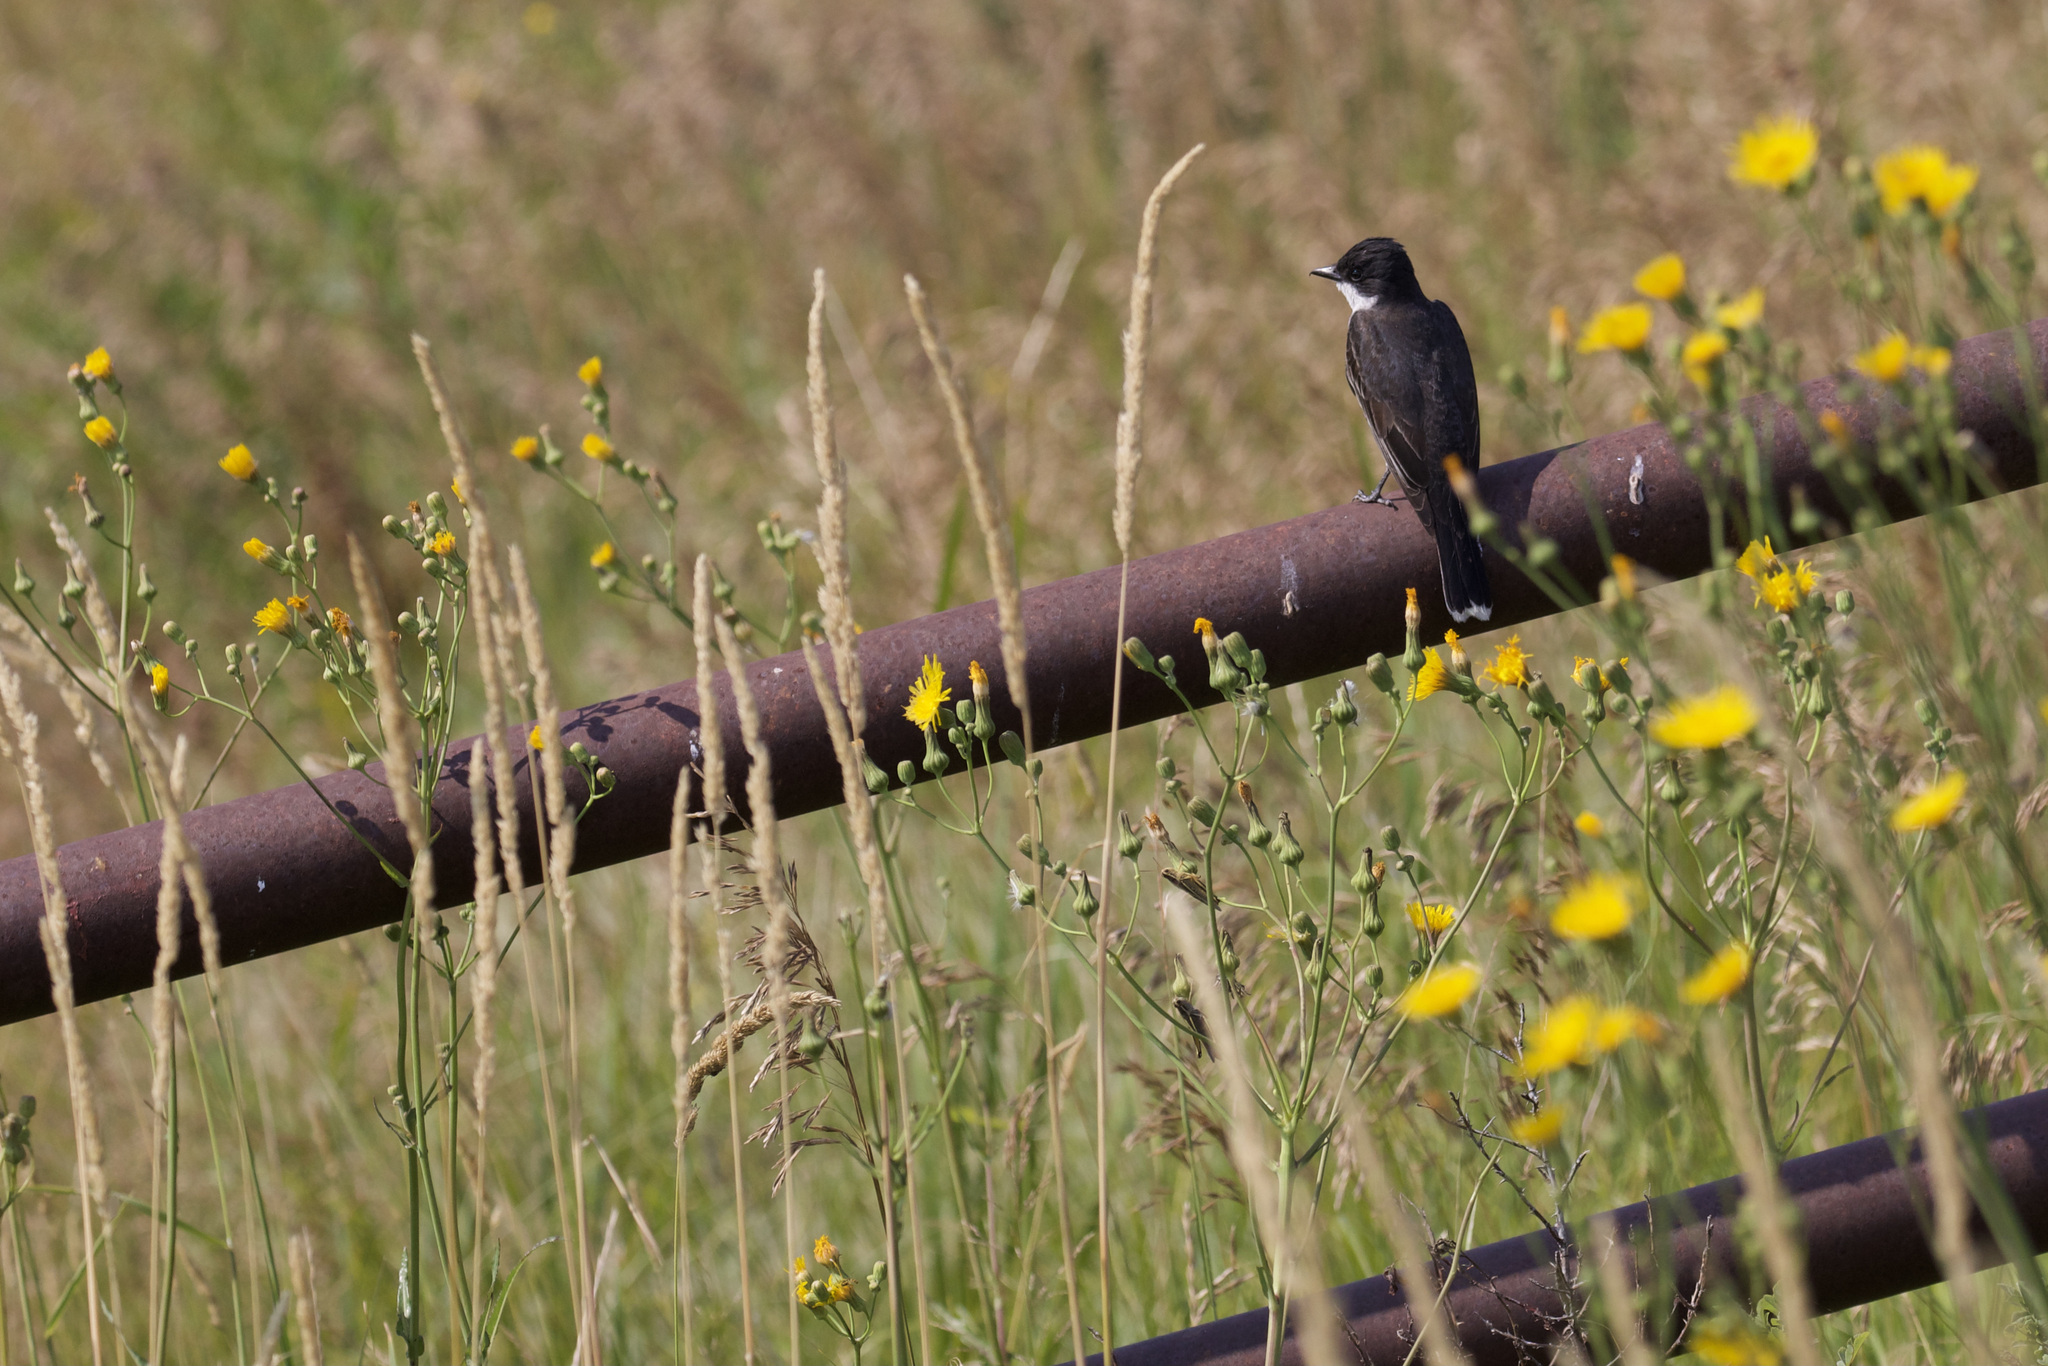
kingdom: Animalia
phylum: Chordata
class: Aves
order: Passeriformes
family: Tyrannidae
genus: Tyrannus
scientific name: Tyrannus tyrannus
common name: Eastern kingbird
